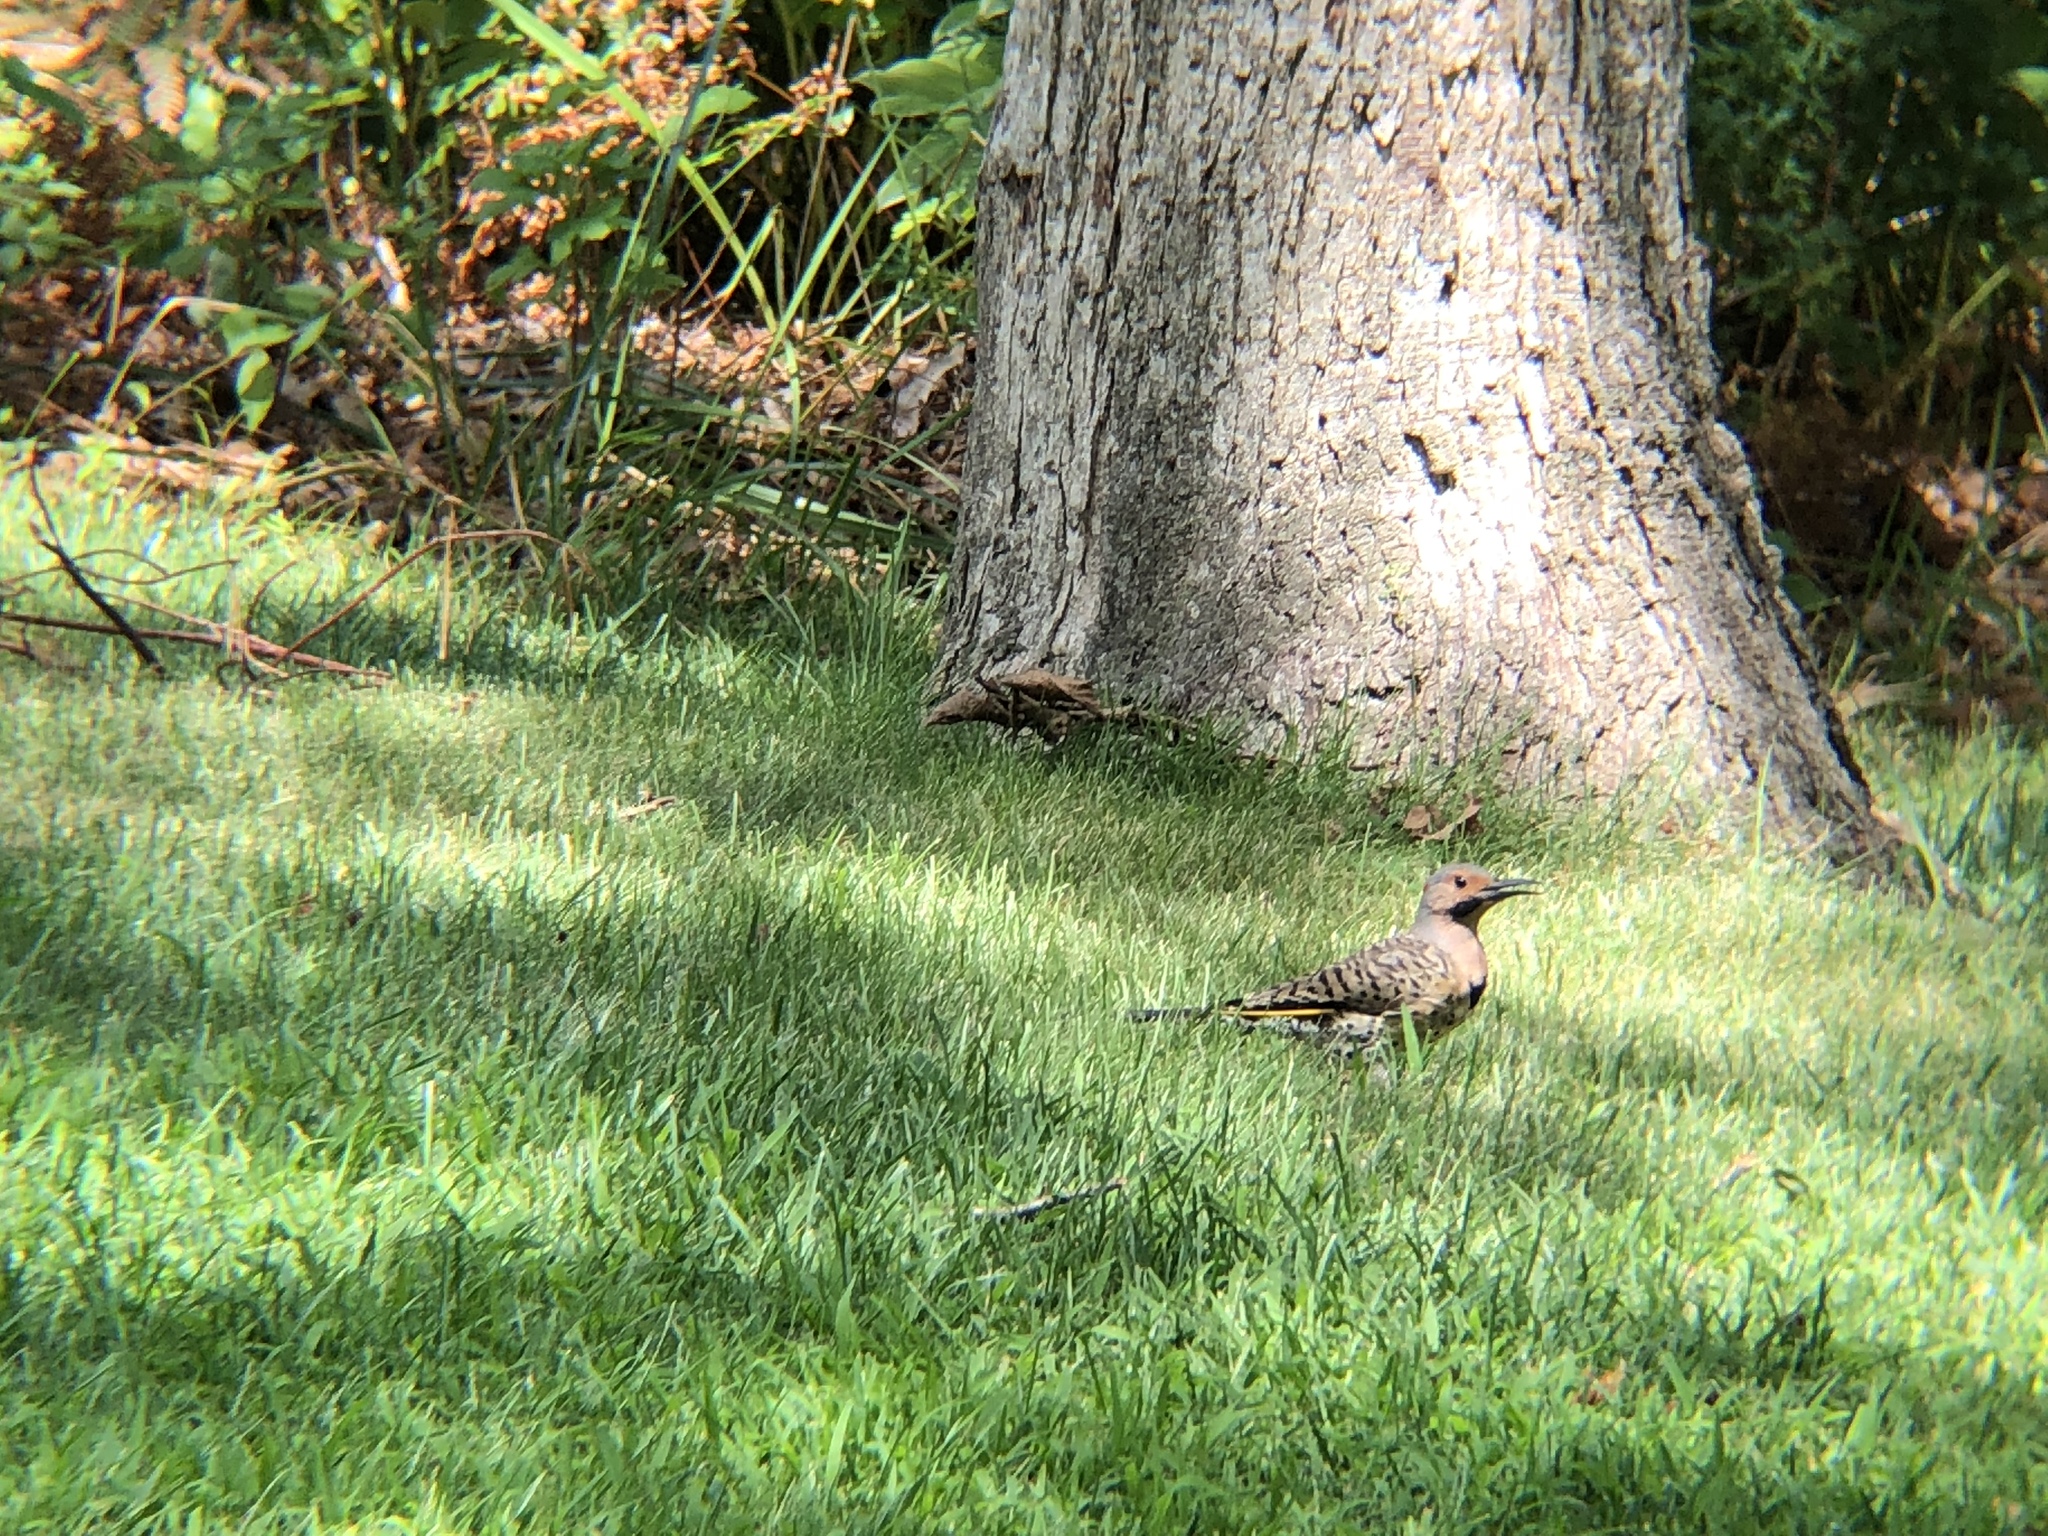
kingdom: Animalia
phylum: Chordata
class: Aves
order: Piciformes
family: Picidae
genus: Colaptes
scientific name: Colaptes auratus
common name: Northern flicker
